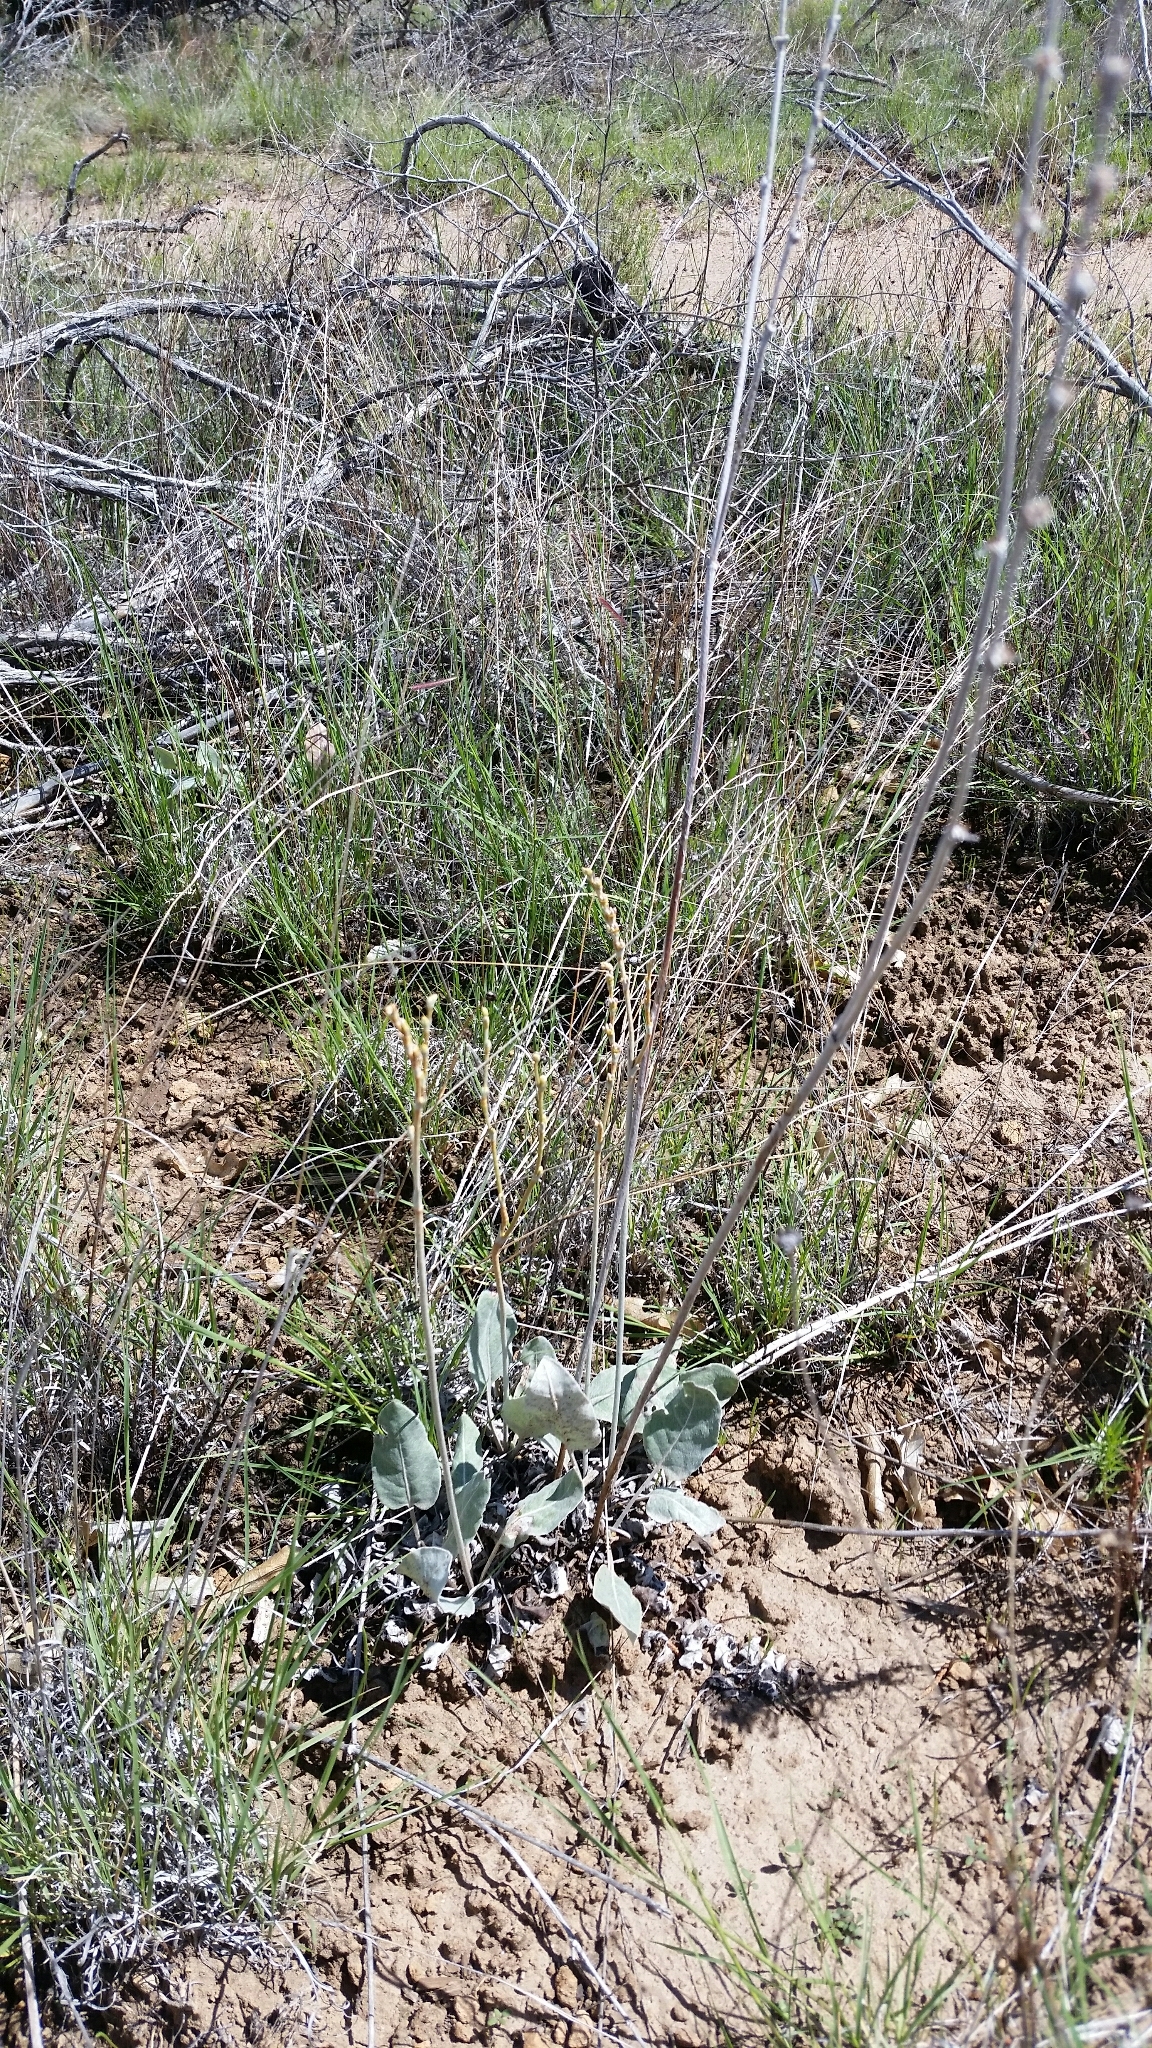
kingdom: Plantae
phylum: Tracheophyta
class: Magnoliopsida
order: Caryophyllales
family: Polygonaceae
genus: Eriogonum
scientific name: Eriogonum racemosum
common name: Redroot wild buckwheat
